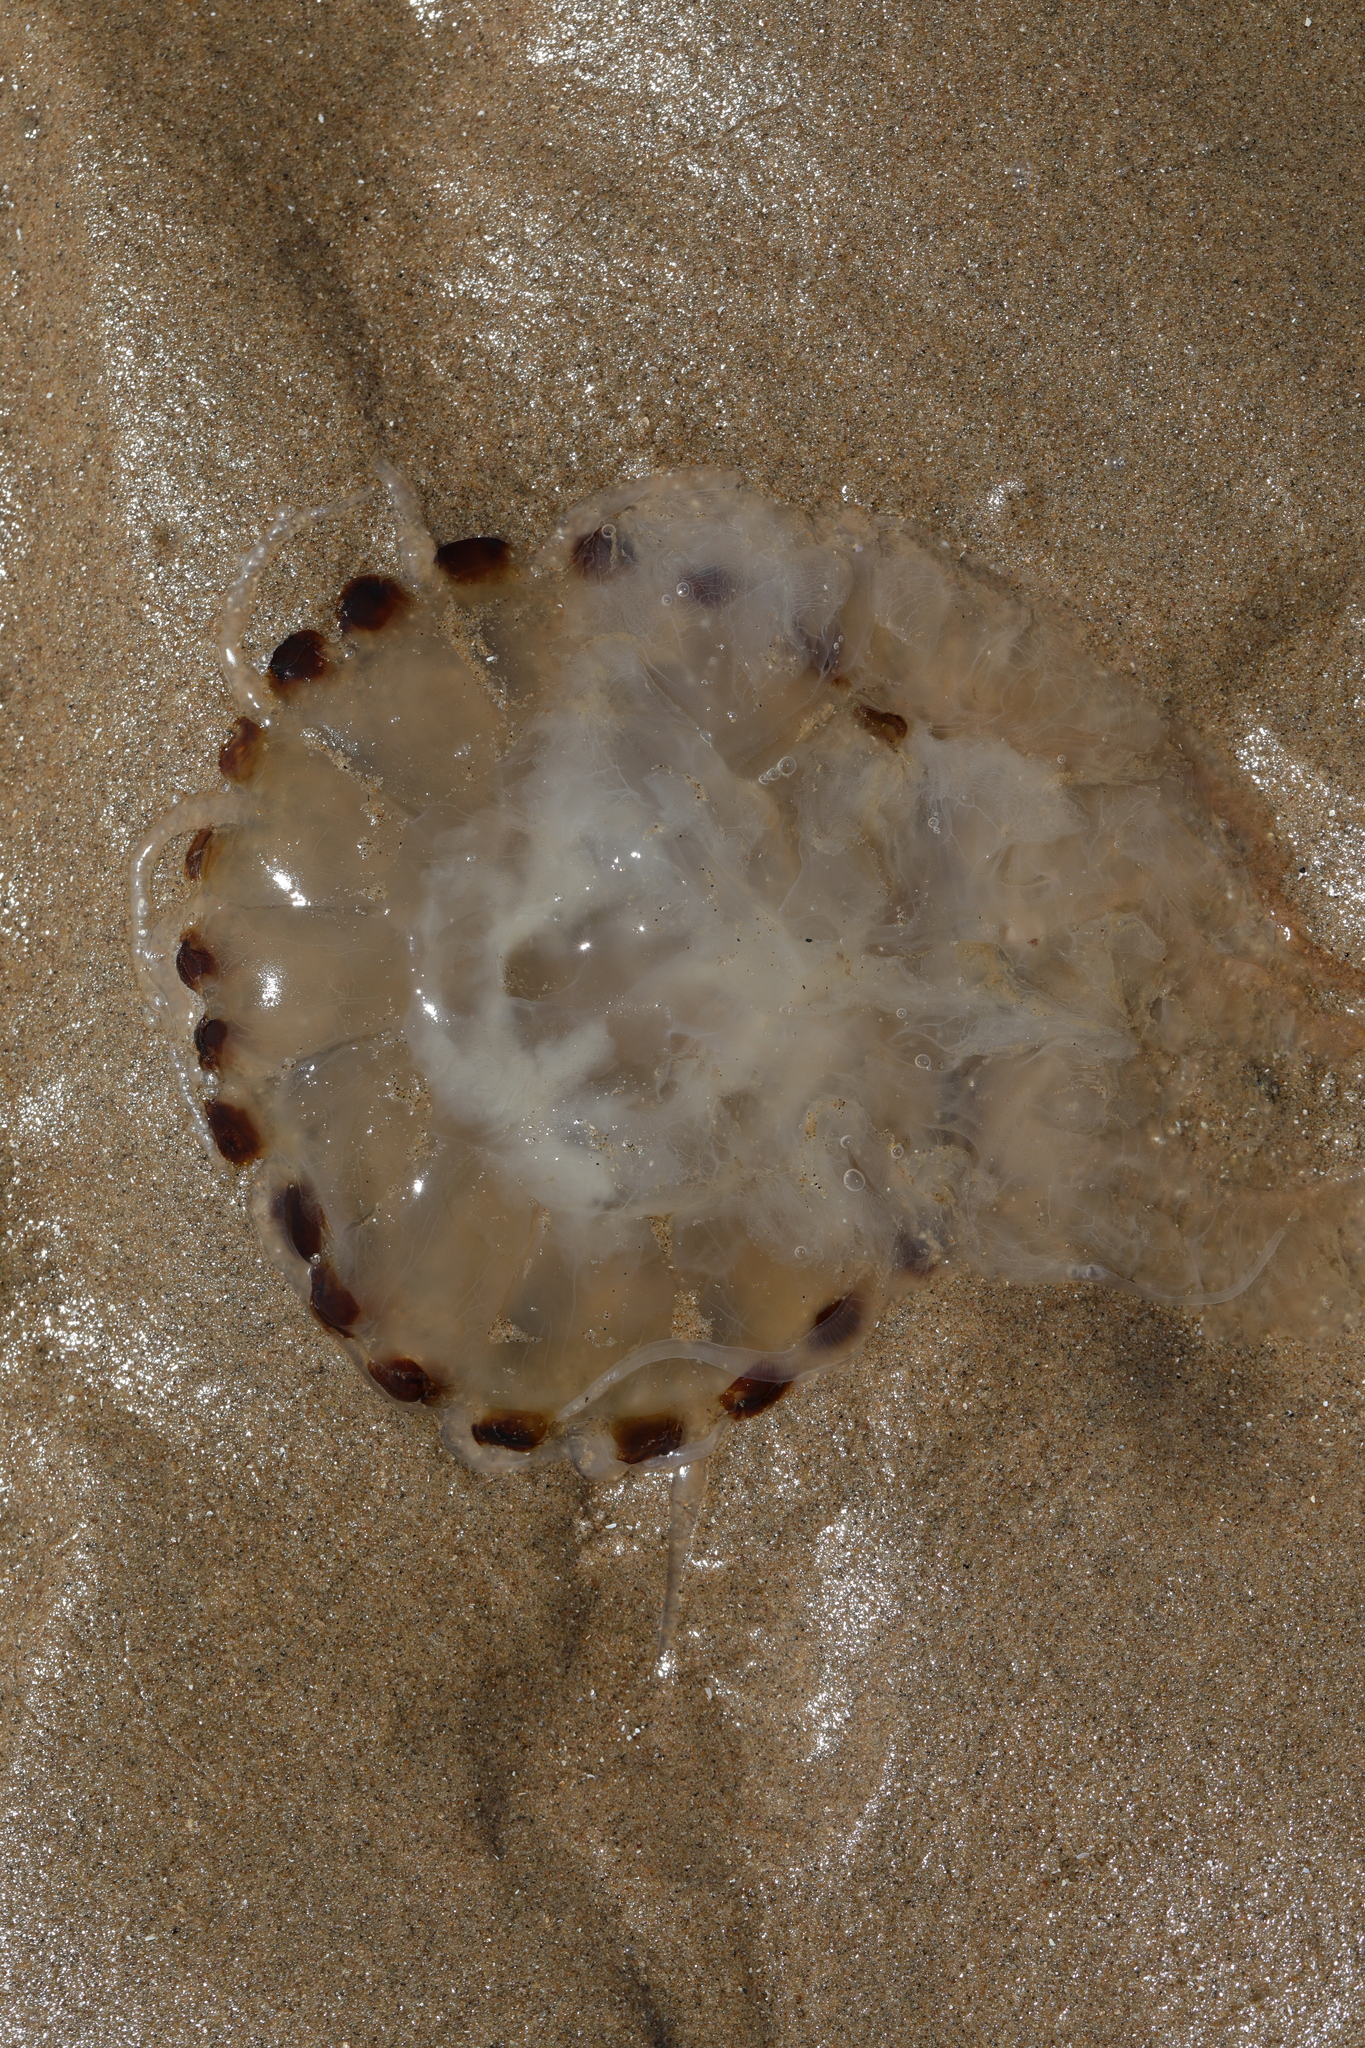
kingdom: Animalia
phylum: Cnidaria
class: Scyphozoa
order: Semaeostomeae
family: Pelagiidae
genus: Chrysaora
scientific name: Chrysaora hysoscella
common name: Compass jellyfish
